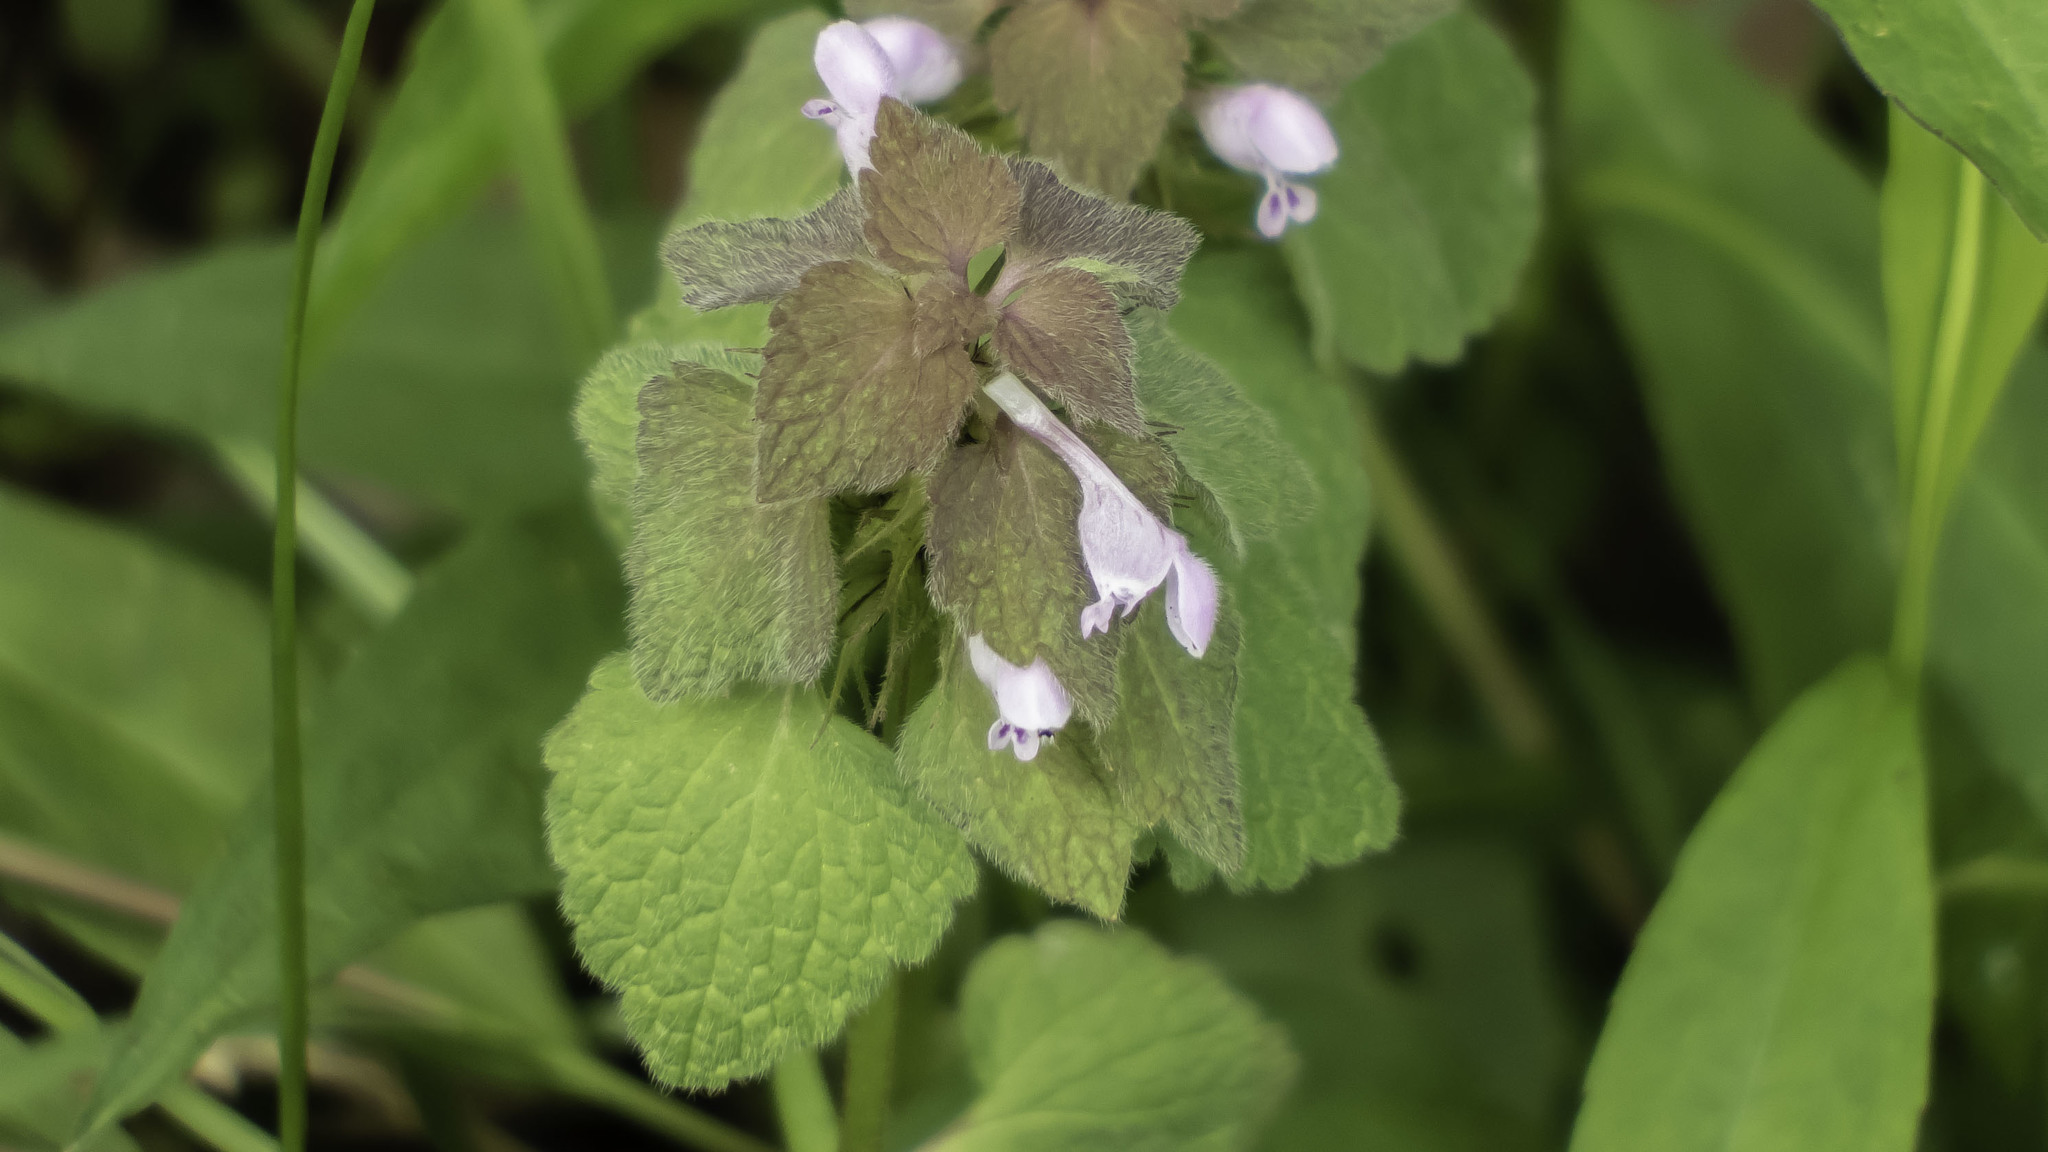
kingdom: Plantae
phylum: Tracheophyta
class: Magnoliopsida
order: Lamiales
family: Lamiaceae
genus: Lamium
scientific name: Lamium purpureum
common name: Red dead-nettle
